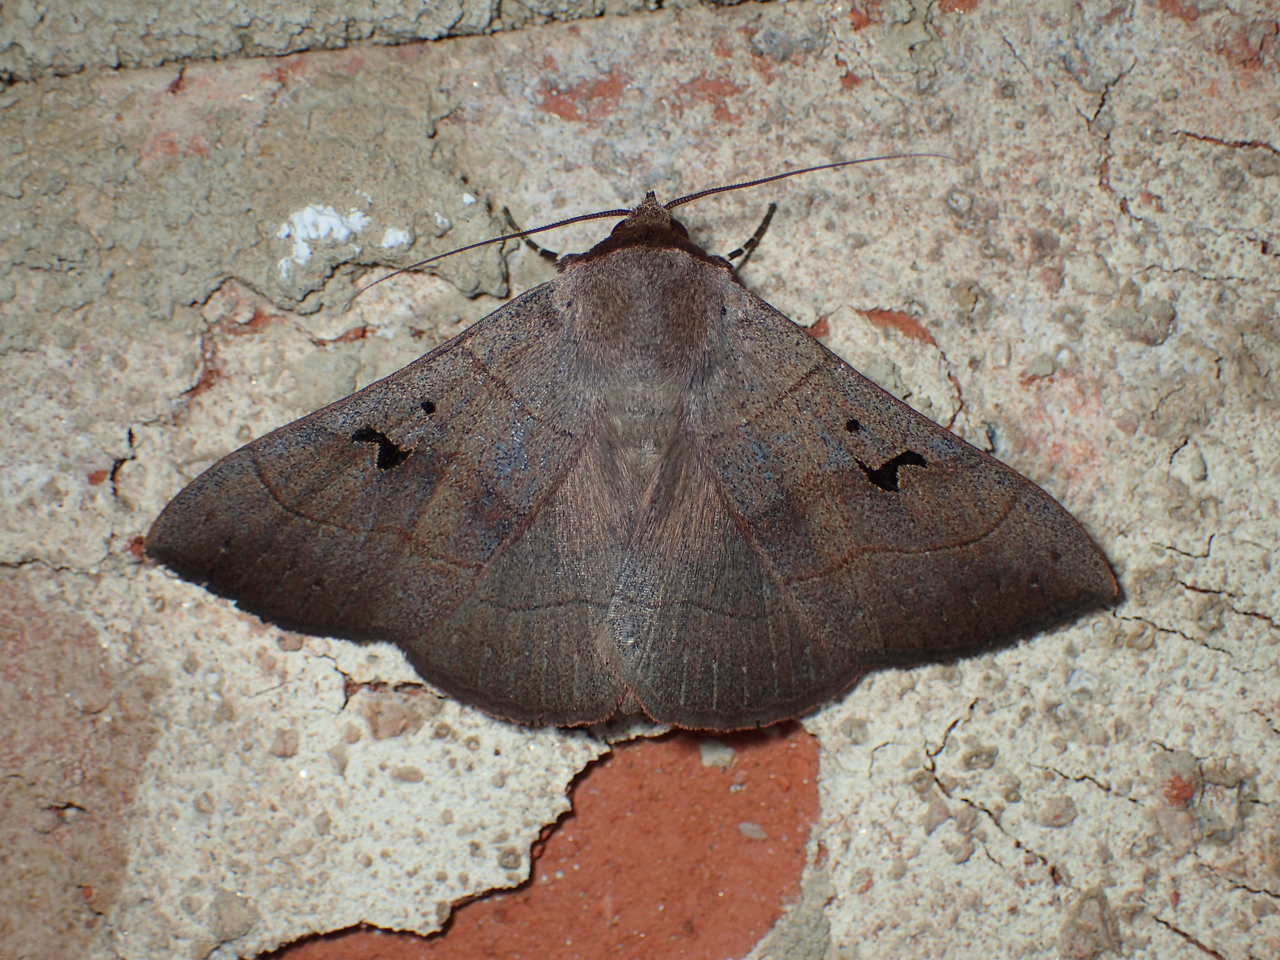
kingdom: Animalia
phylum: Arthropoda
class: Insecta
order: Lepidoptera
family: Erebidae
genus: Panopoda
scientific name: Panopoda carneicosta
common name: Brown panopoda moth
